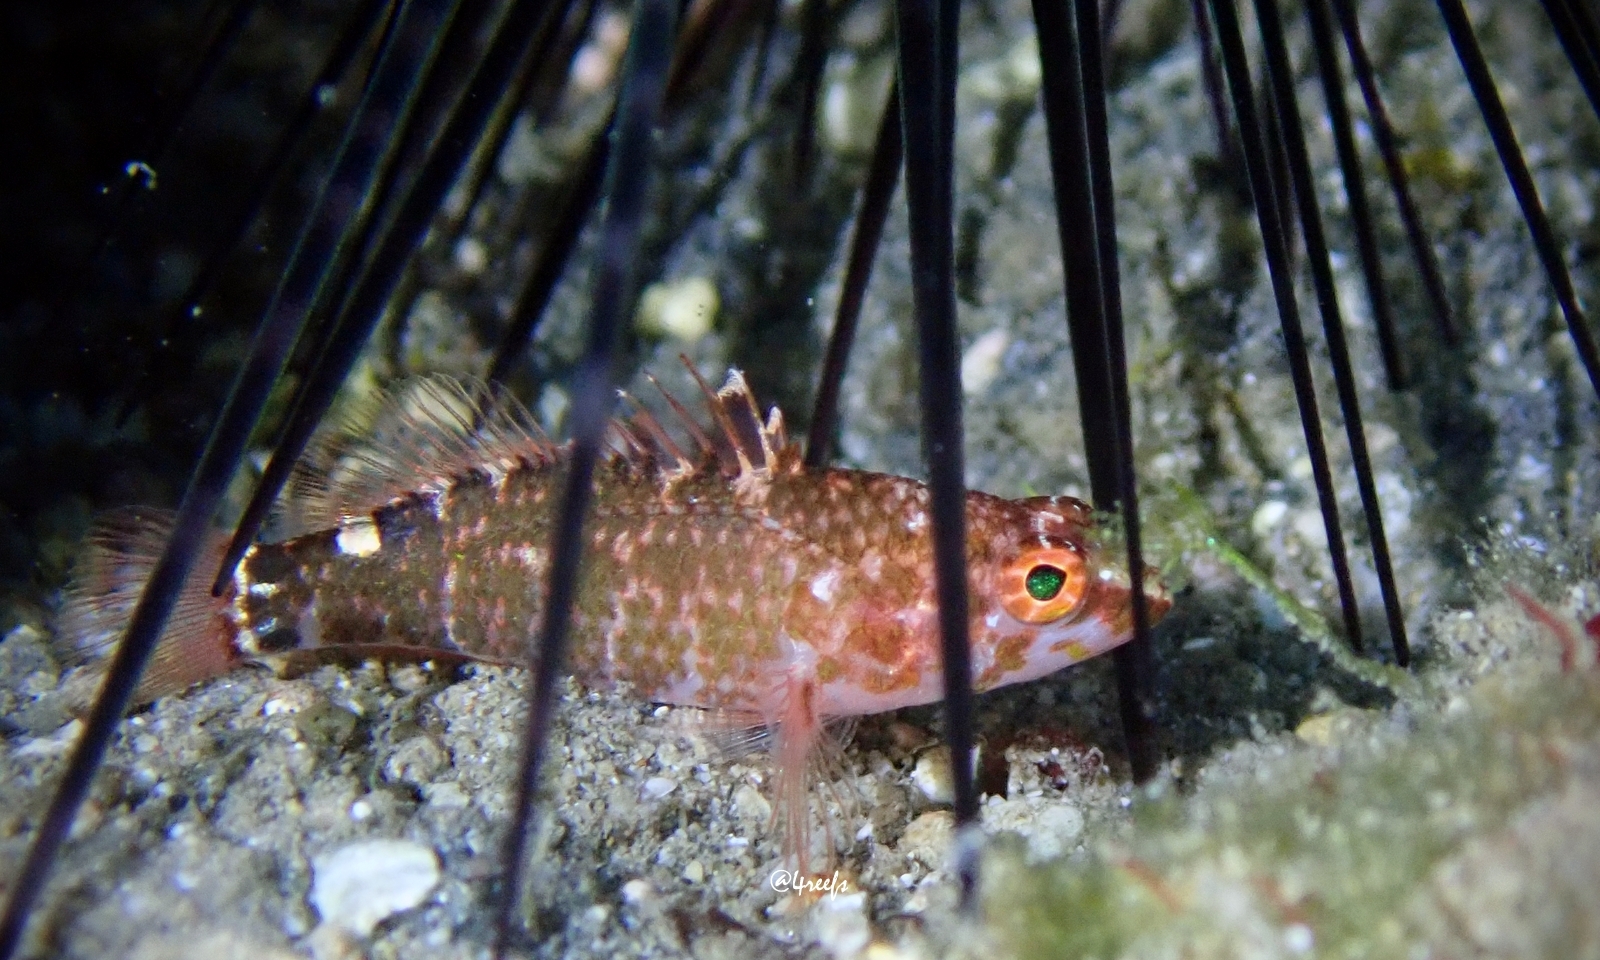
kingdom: Animalia
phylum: Chordata
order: Perciformes
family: Serranidae
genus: Plectranthias
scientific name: Plectranthias nanus
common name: Dwarf perchlet
